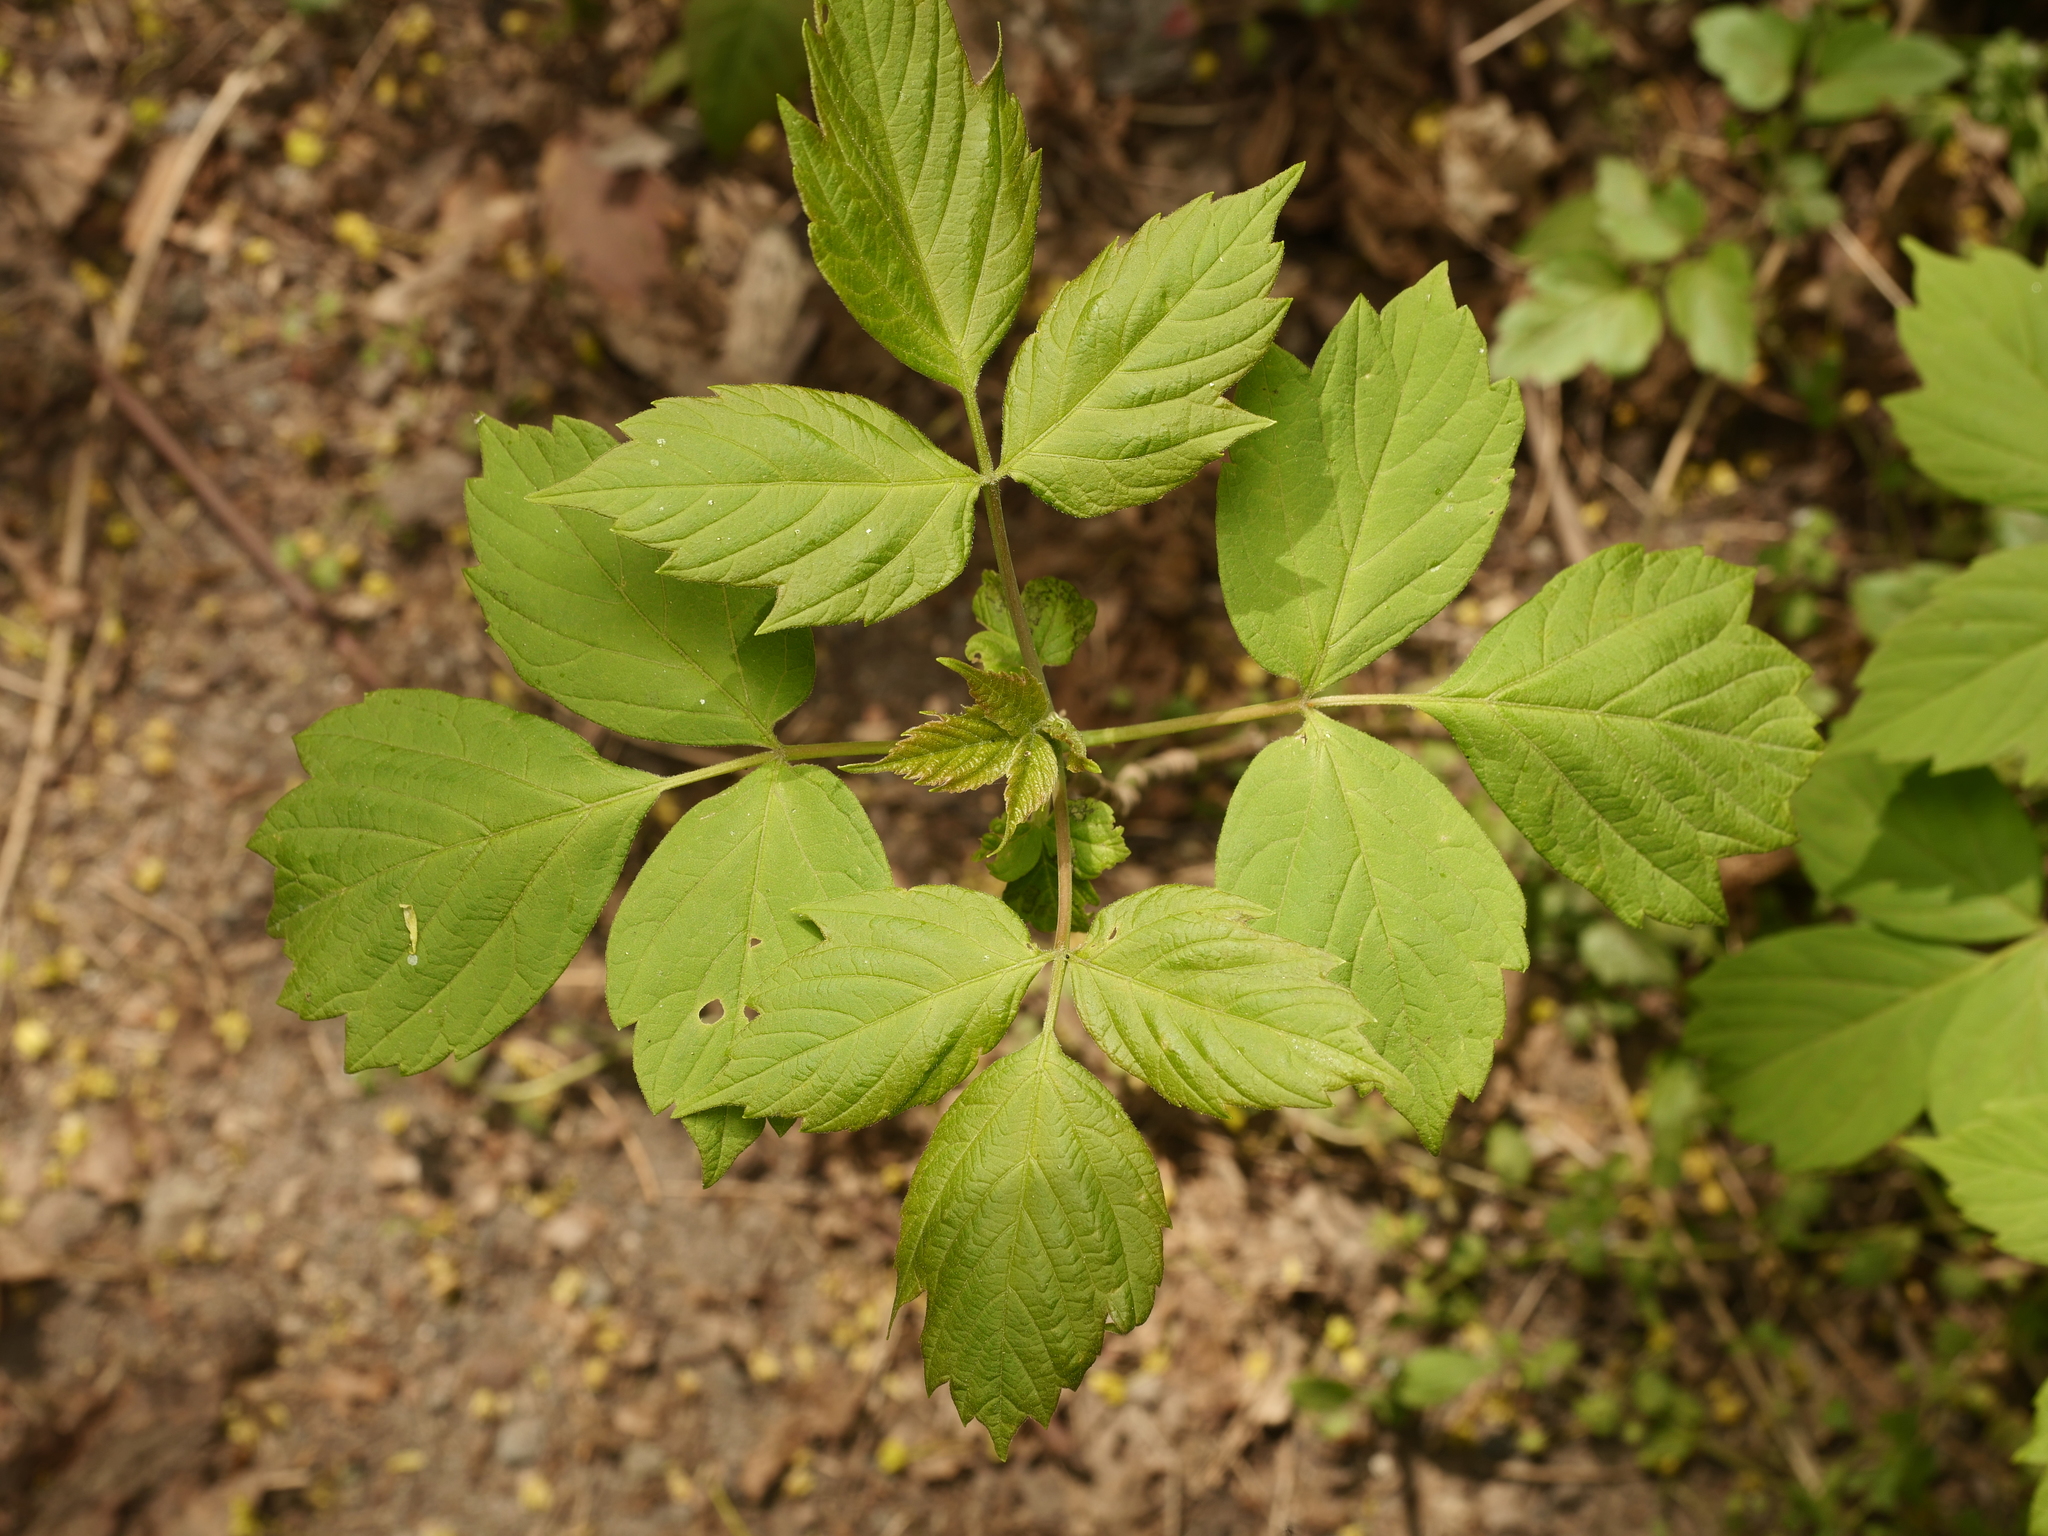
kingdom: Plantae
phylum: Tracheophyta
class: Magnoliopsida
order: Sapindales
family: Sapindaceae
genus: Acer
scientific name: Acer negundo
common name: Ashleaf maple
